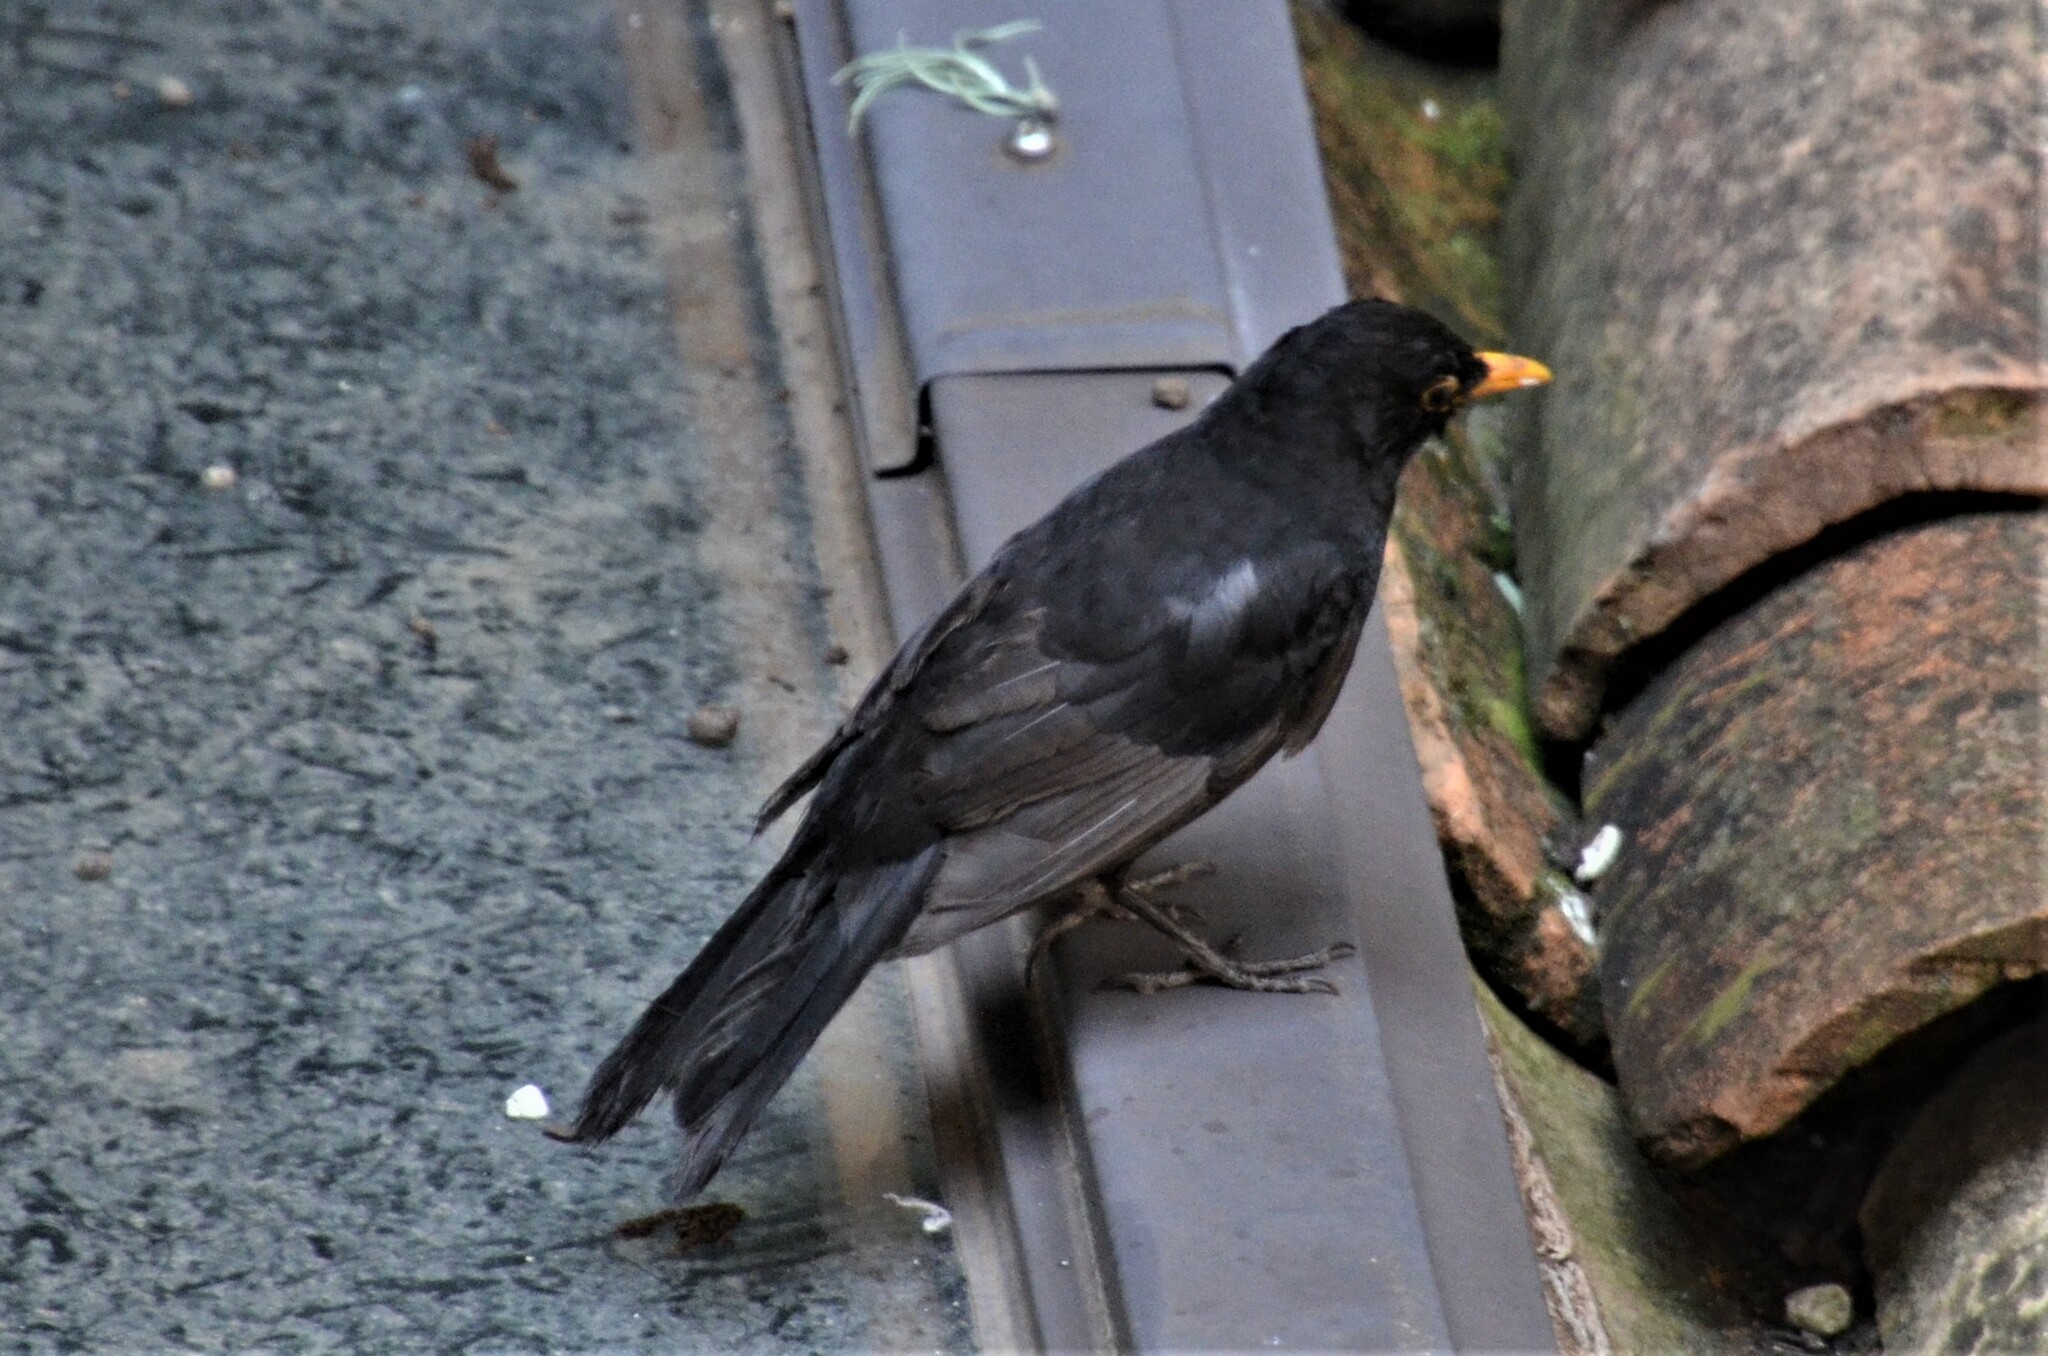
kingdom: Animalia
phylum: Chordata
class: Aves
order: Passeriformes
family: Turdidae
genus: Turdus
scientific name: Turdus merula
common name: Common blackbird
